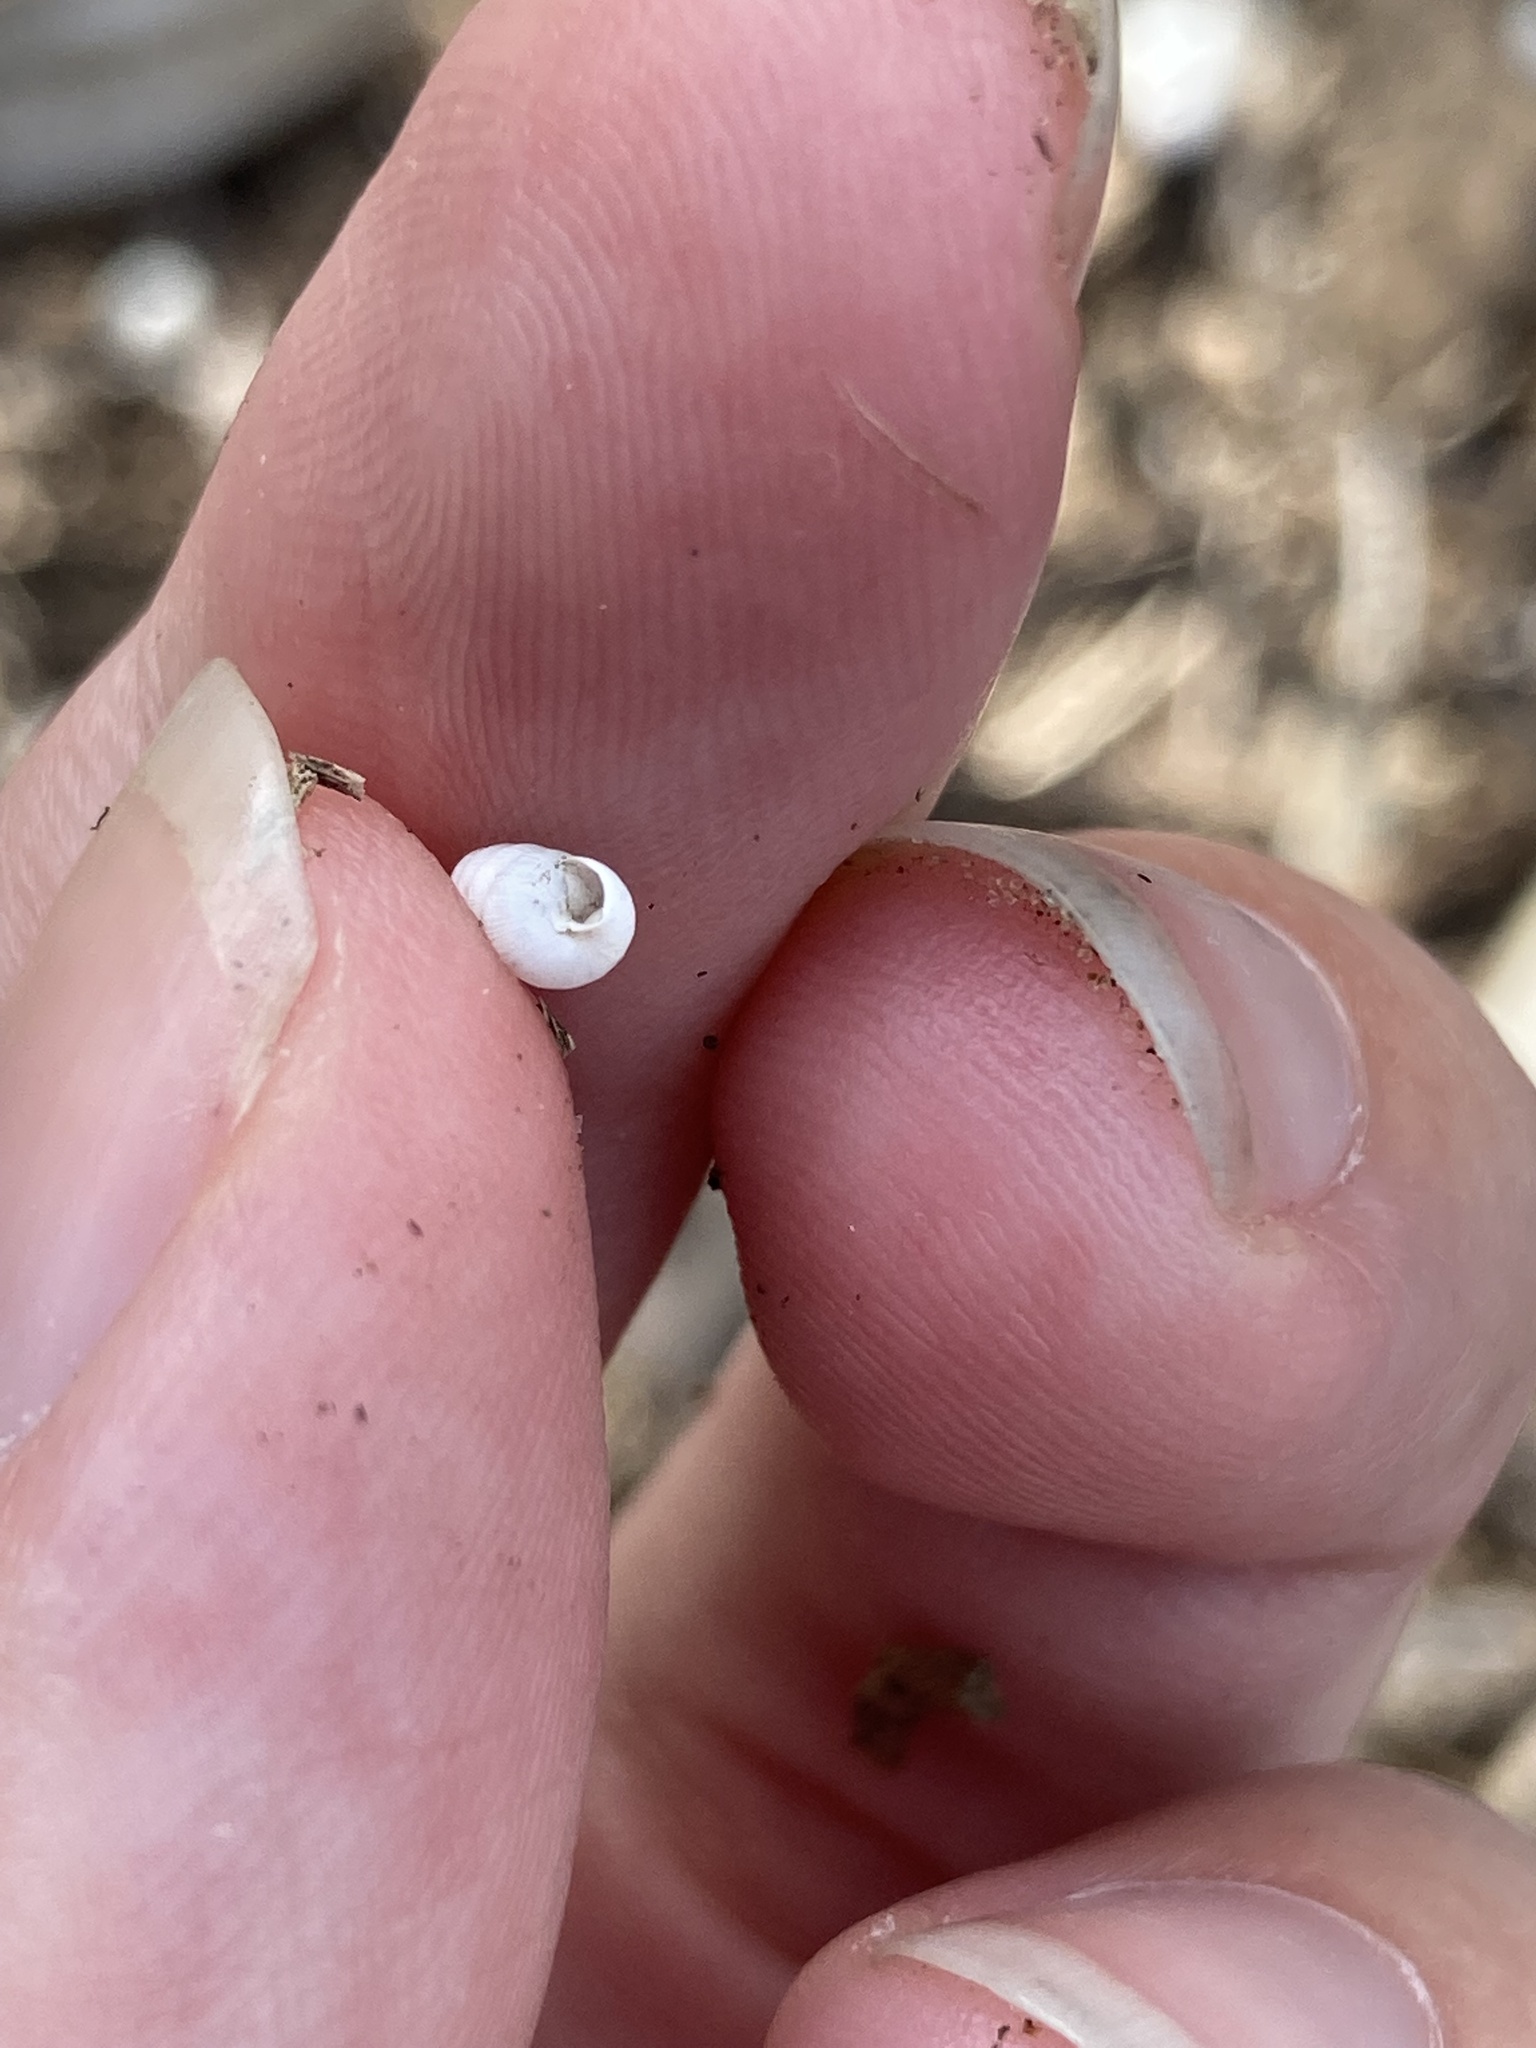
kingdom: Animalia
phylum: Mollusca
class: Gastropoda
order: Stylommatophora
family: Achatinidae
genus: Beckianum
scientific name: Beckianum beckianum
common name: Land snail
